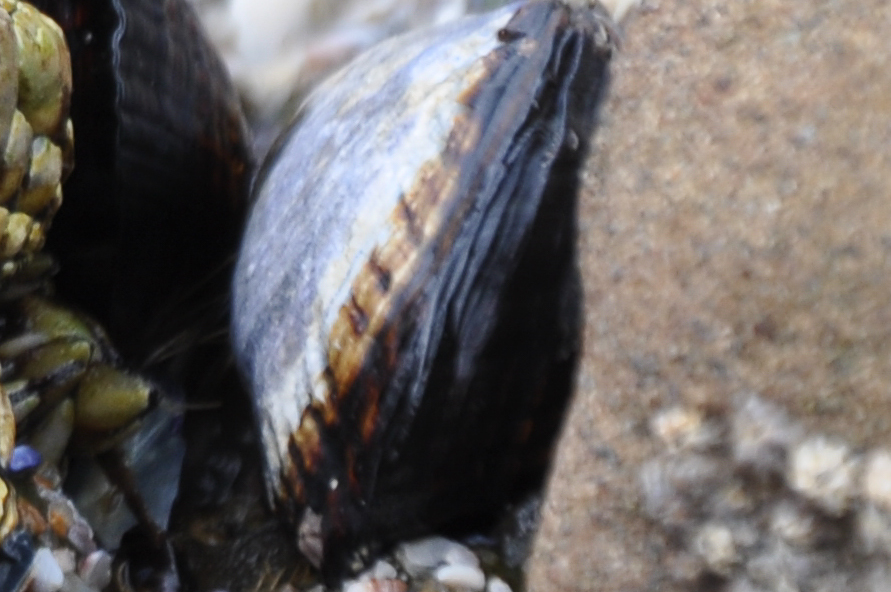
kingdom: Animalia
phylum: Mollusca
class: Bivalvia
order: Mytilida
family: Mytilidae
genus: Mytilus
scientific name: Mytilus californianus
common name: California mussel
